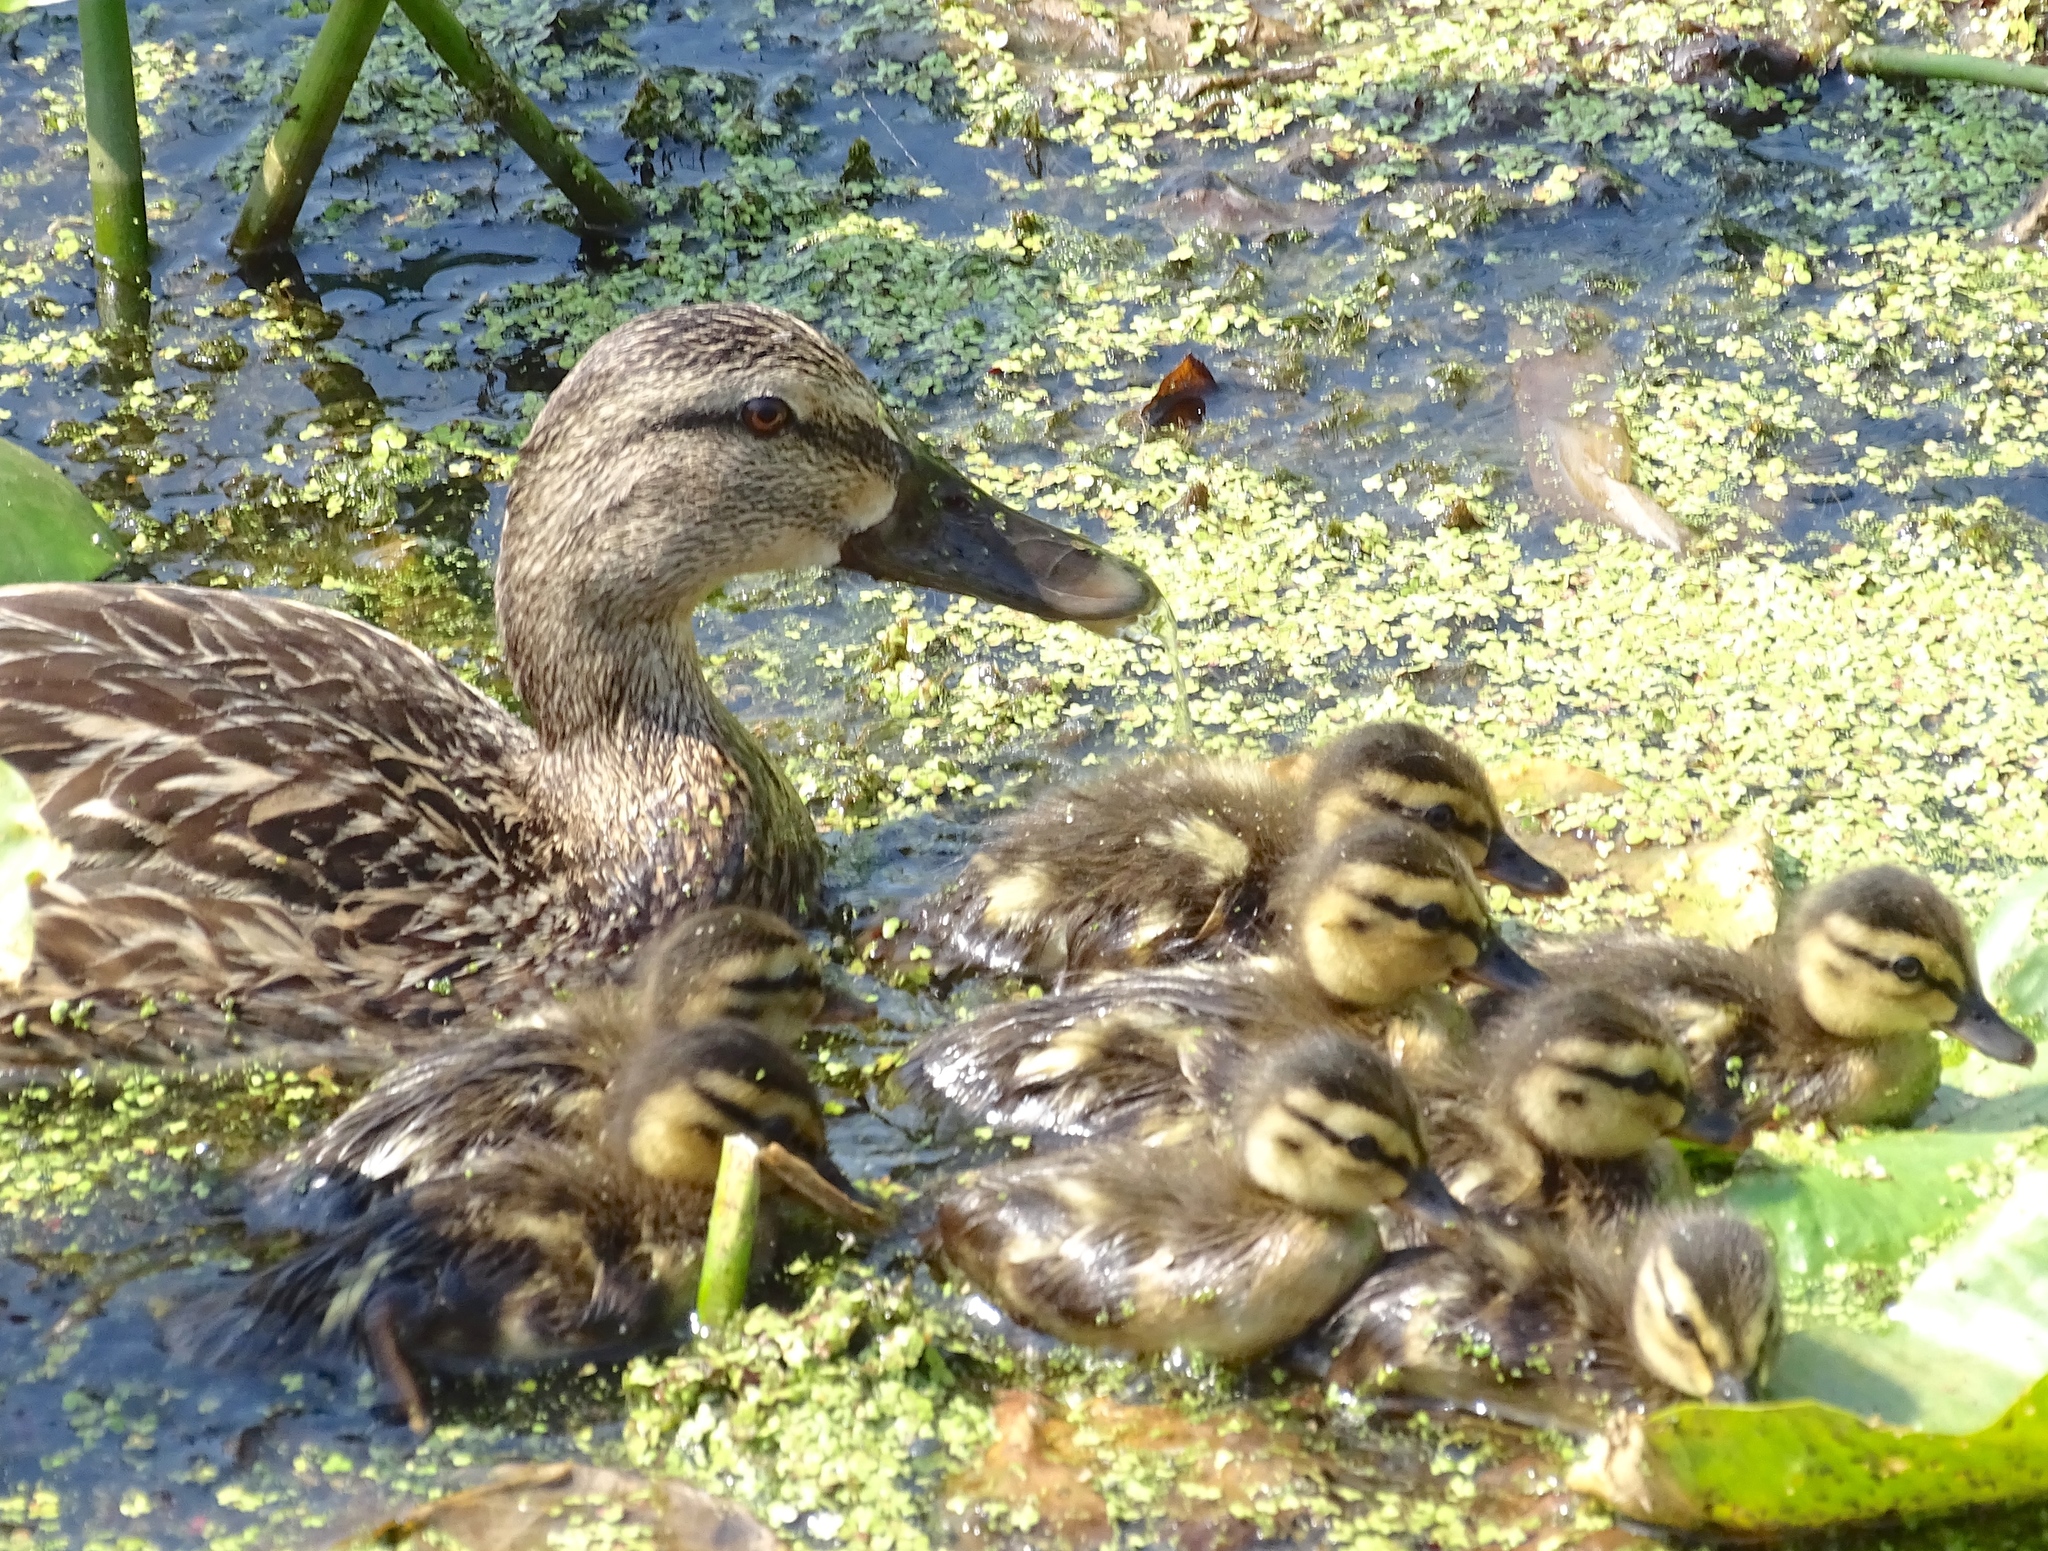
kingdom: Animalia
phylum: Chordata
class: Aves
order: Anseriformes
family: Anatidae
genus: Anas
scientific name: Anas platyrhynchos
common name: Mallard
